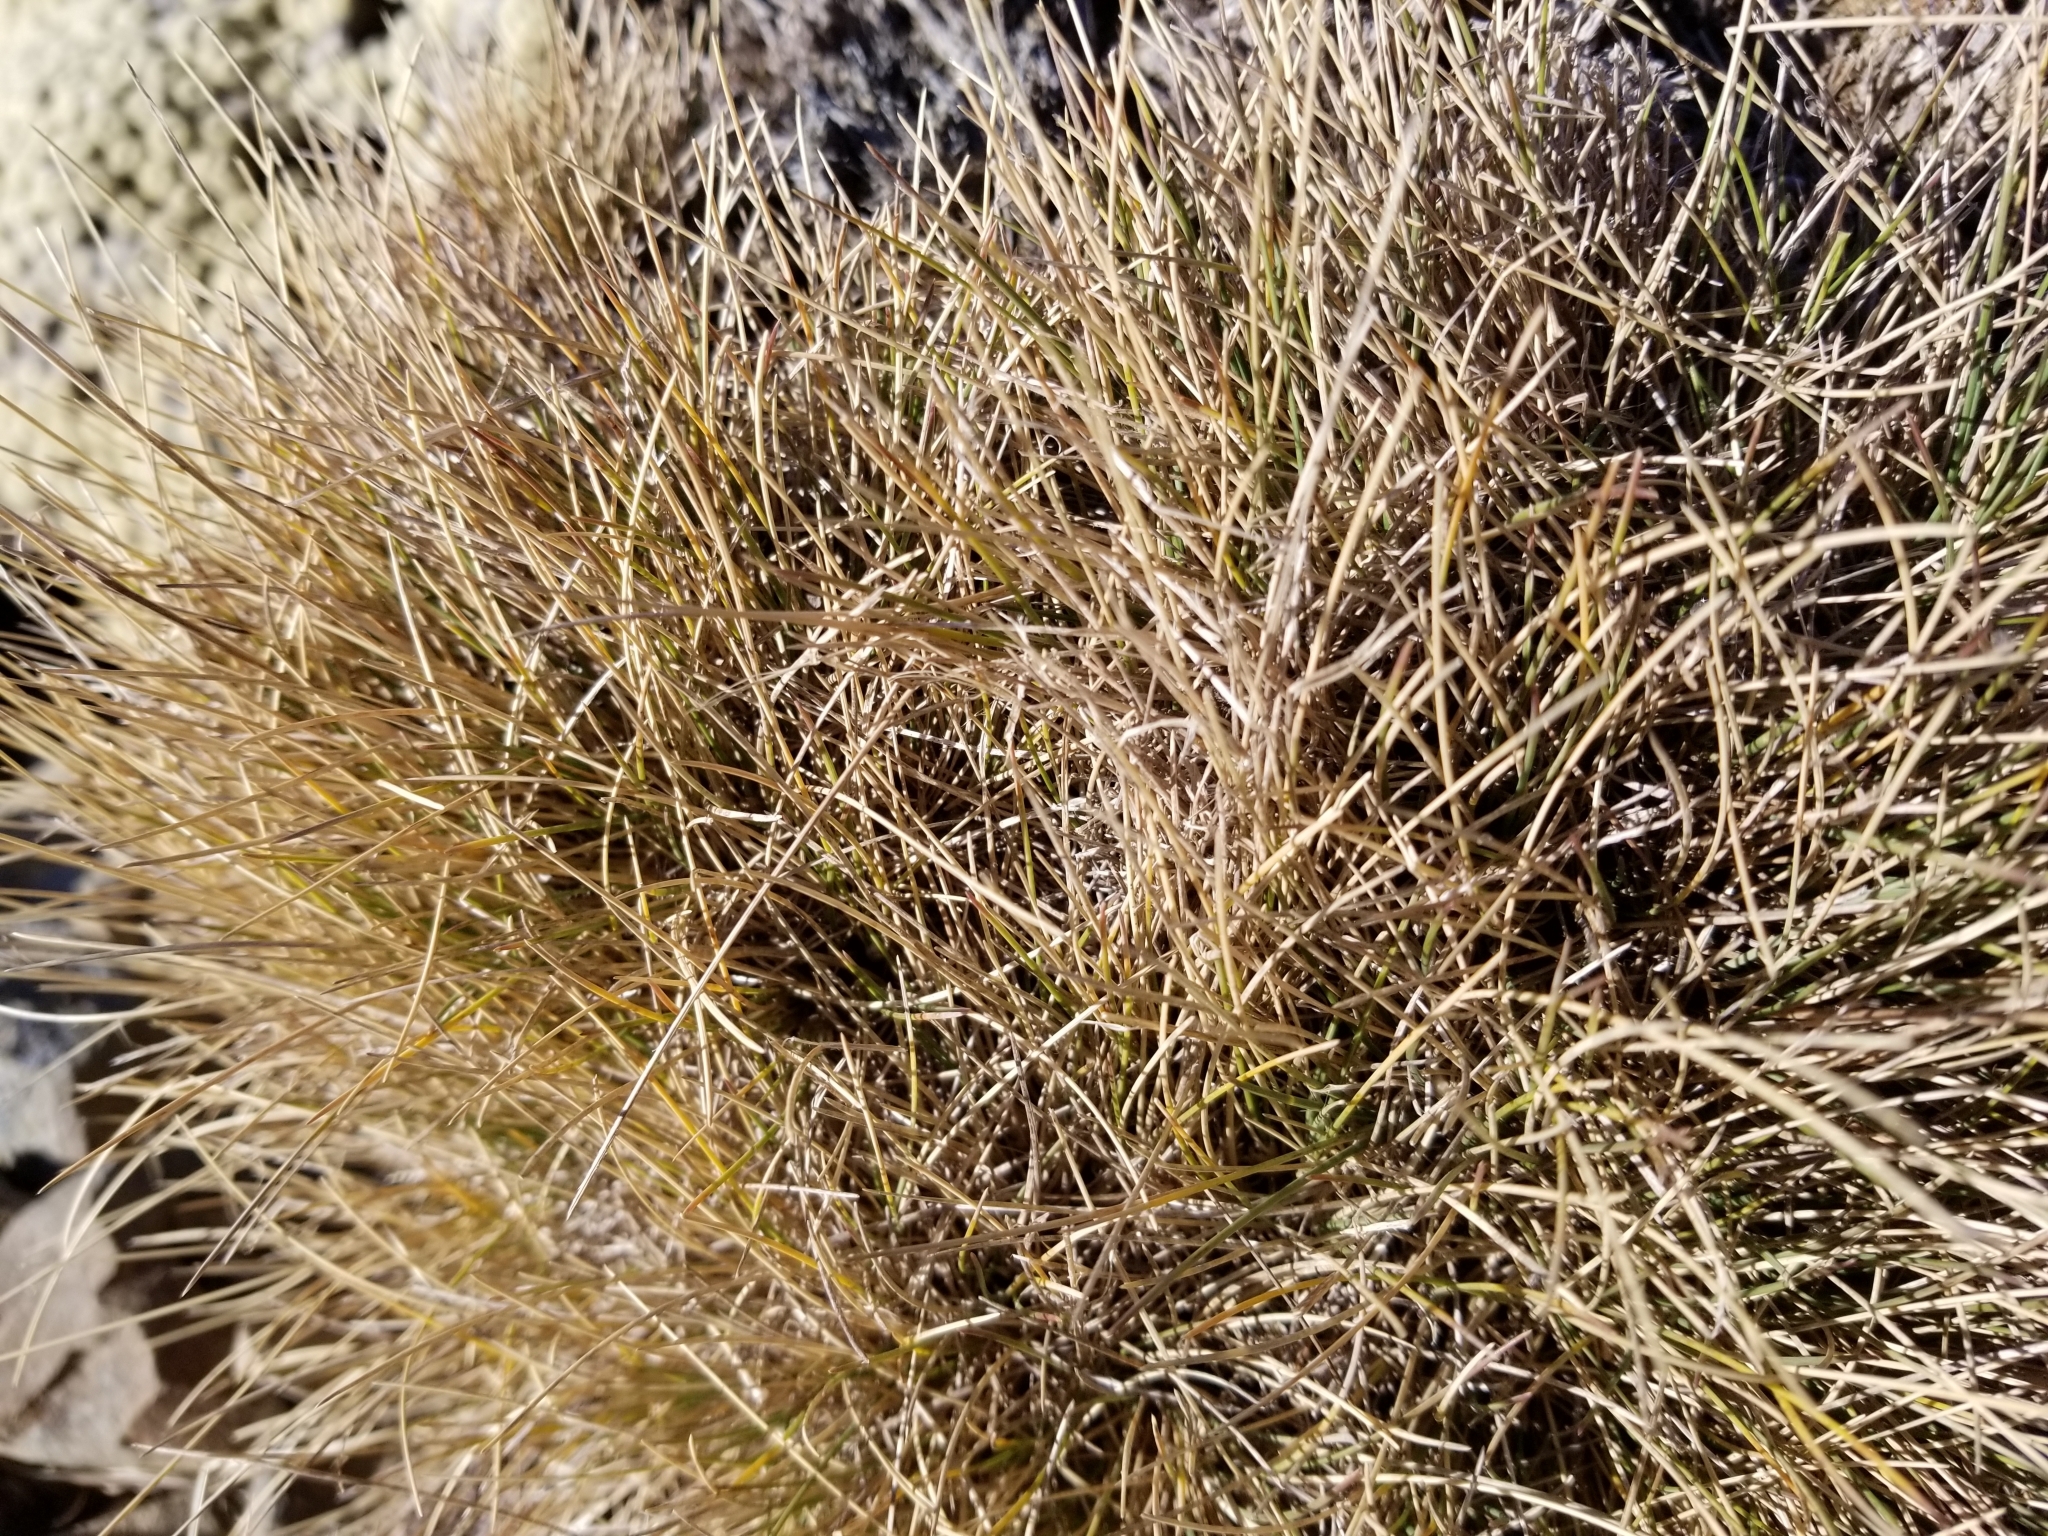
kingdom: Plantae
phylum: Tracheophyta
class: Liliopsida
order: Poales
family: Poaceae
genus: Chionochloa
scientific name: Chionochloa australis
